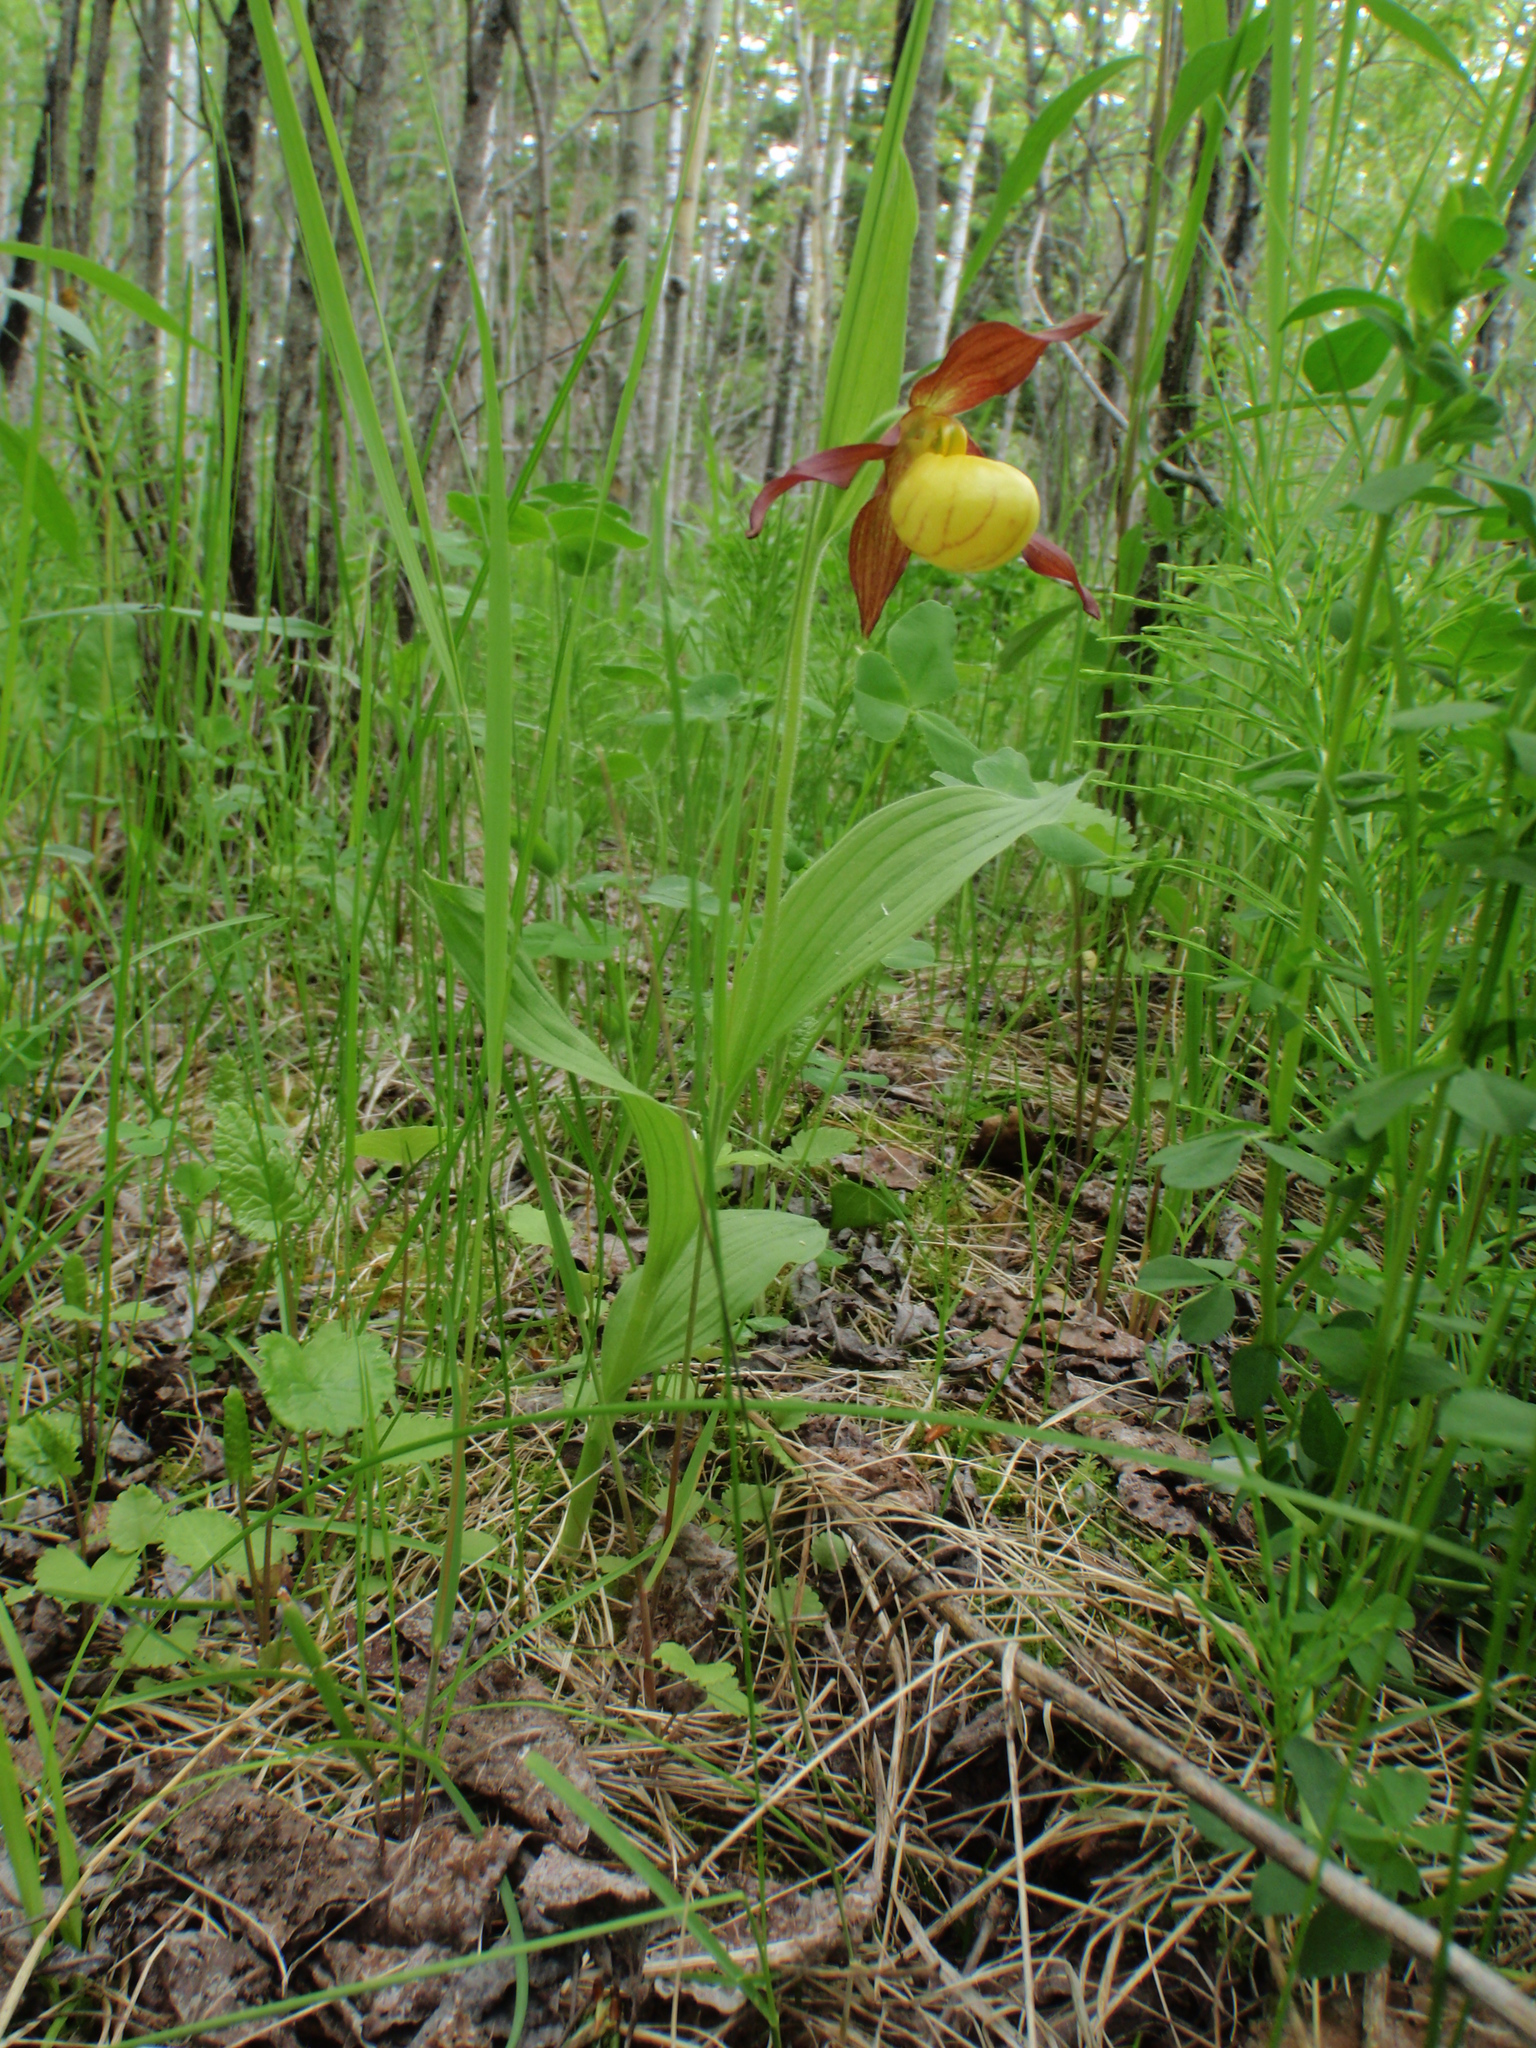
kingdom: Plantae
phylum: Tracheophyta
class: Liliopsida
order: Asparagales
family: Orchidaceae
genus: Cypripedium
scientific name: Cypripedium parviflorum
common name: American yellow lady's-slipper
